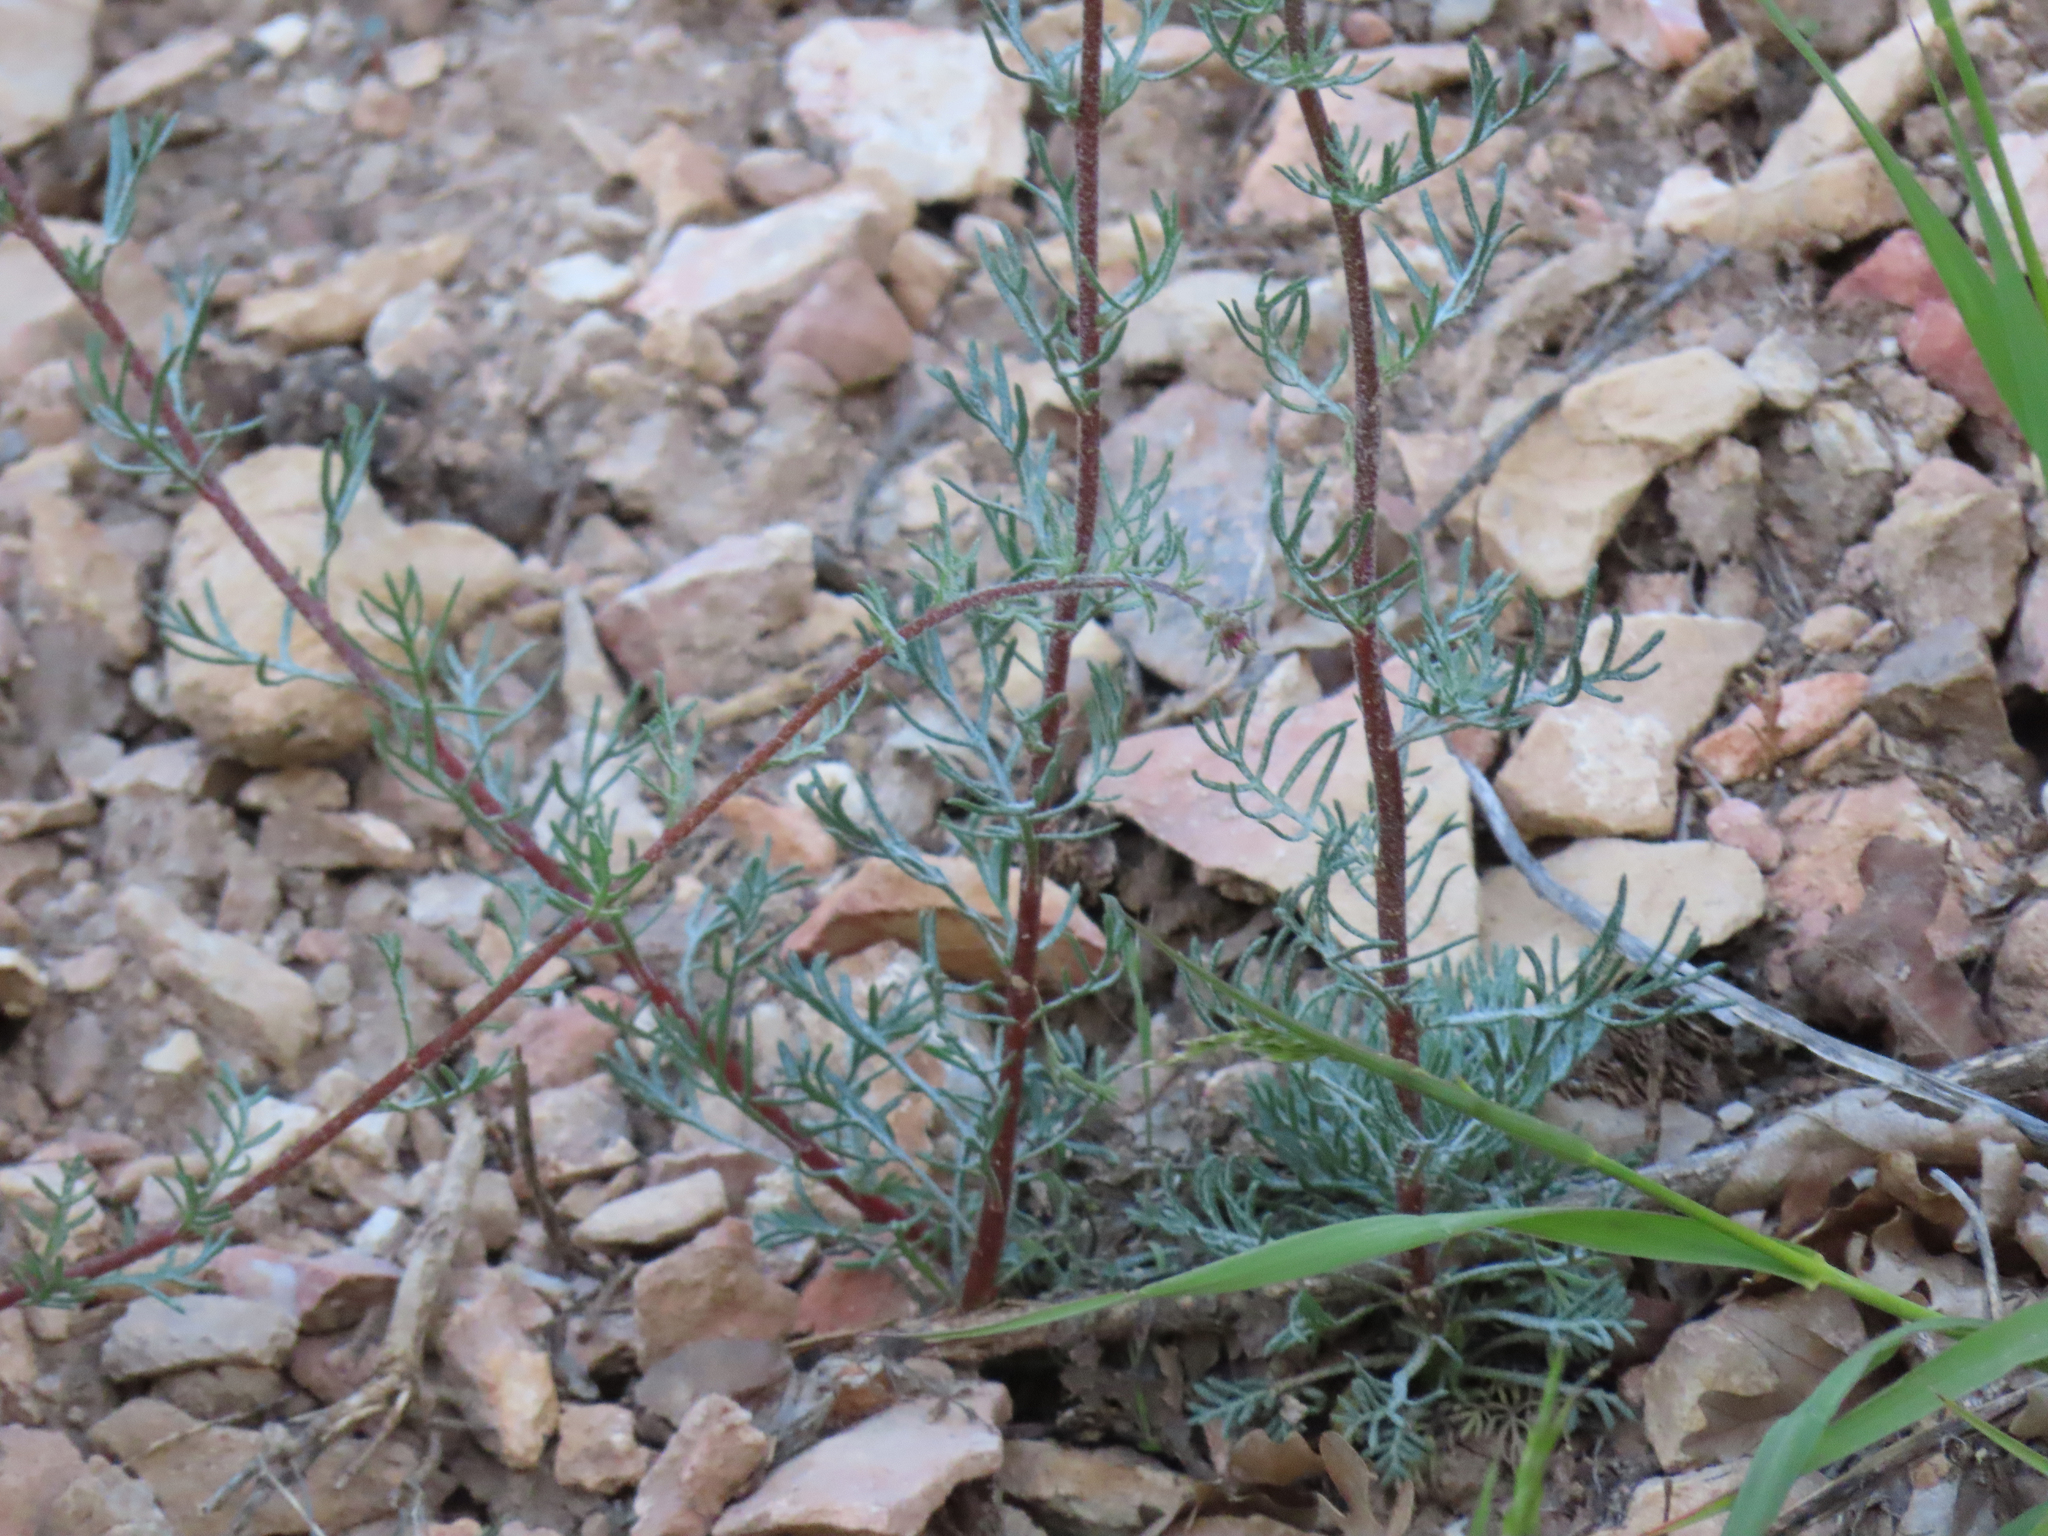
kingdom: Plantae
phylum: Tracheophyta
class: Magnoliopsida
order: Ericales
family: Polemoniaceae
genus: Ipomopsis
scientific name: Ipomopsis arizonica
